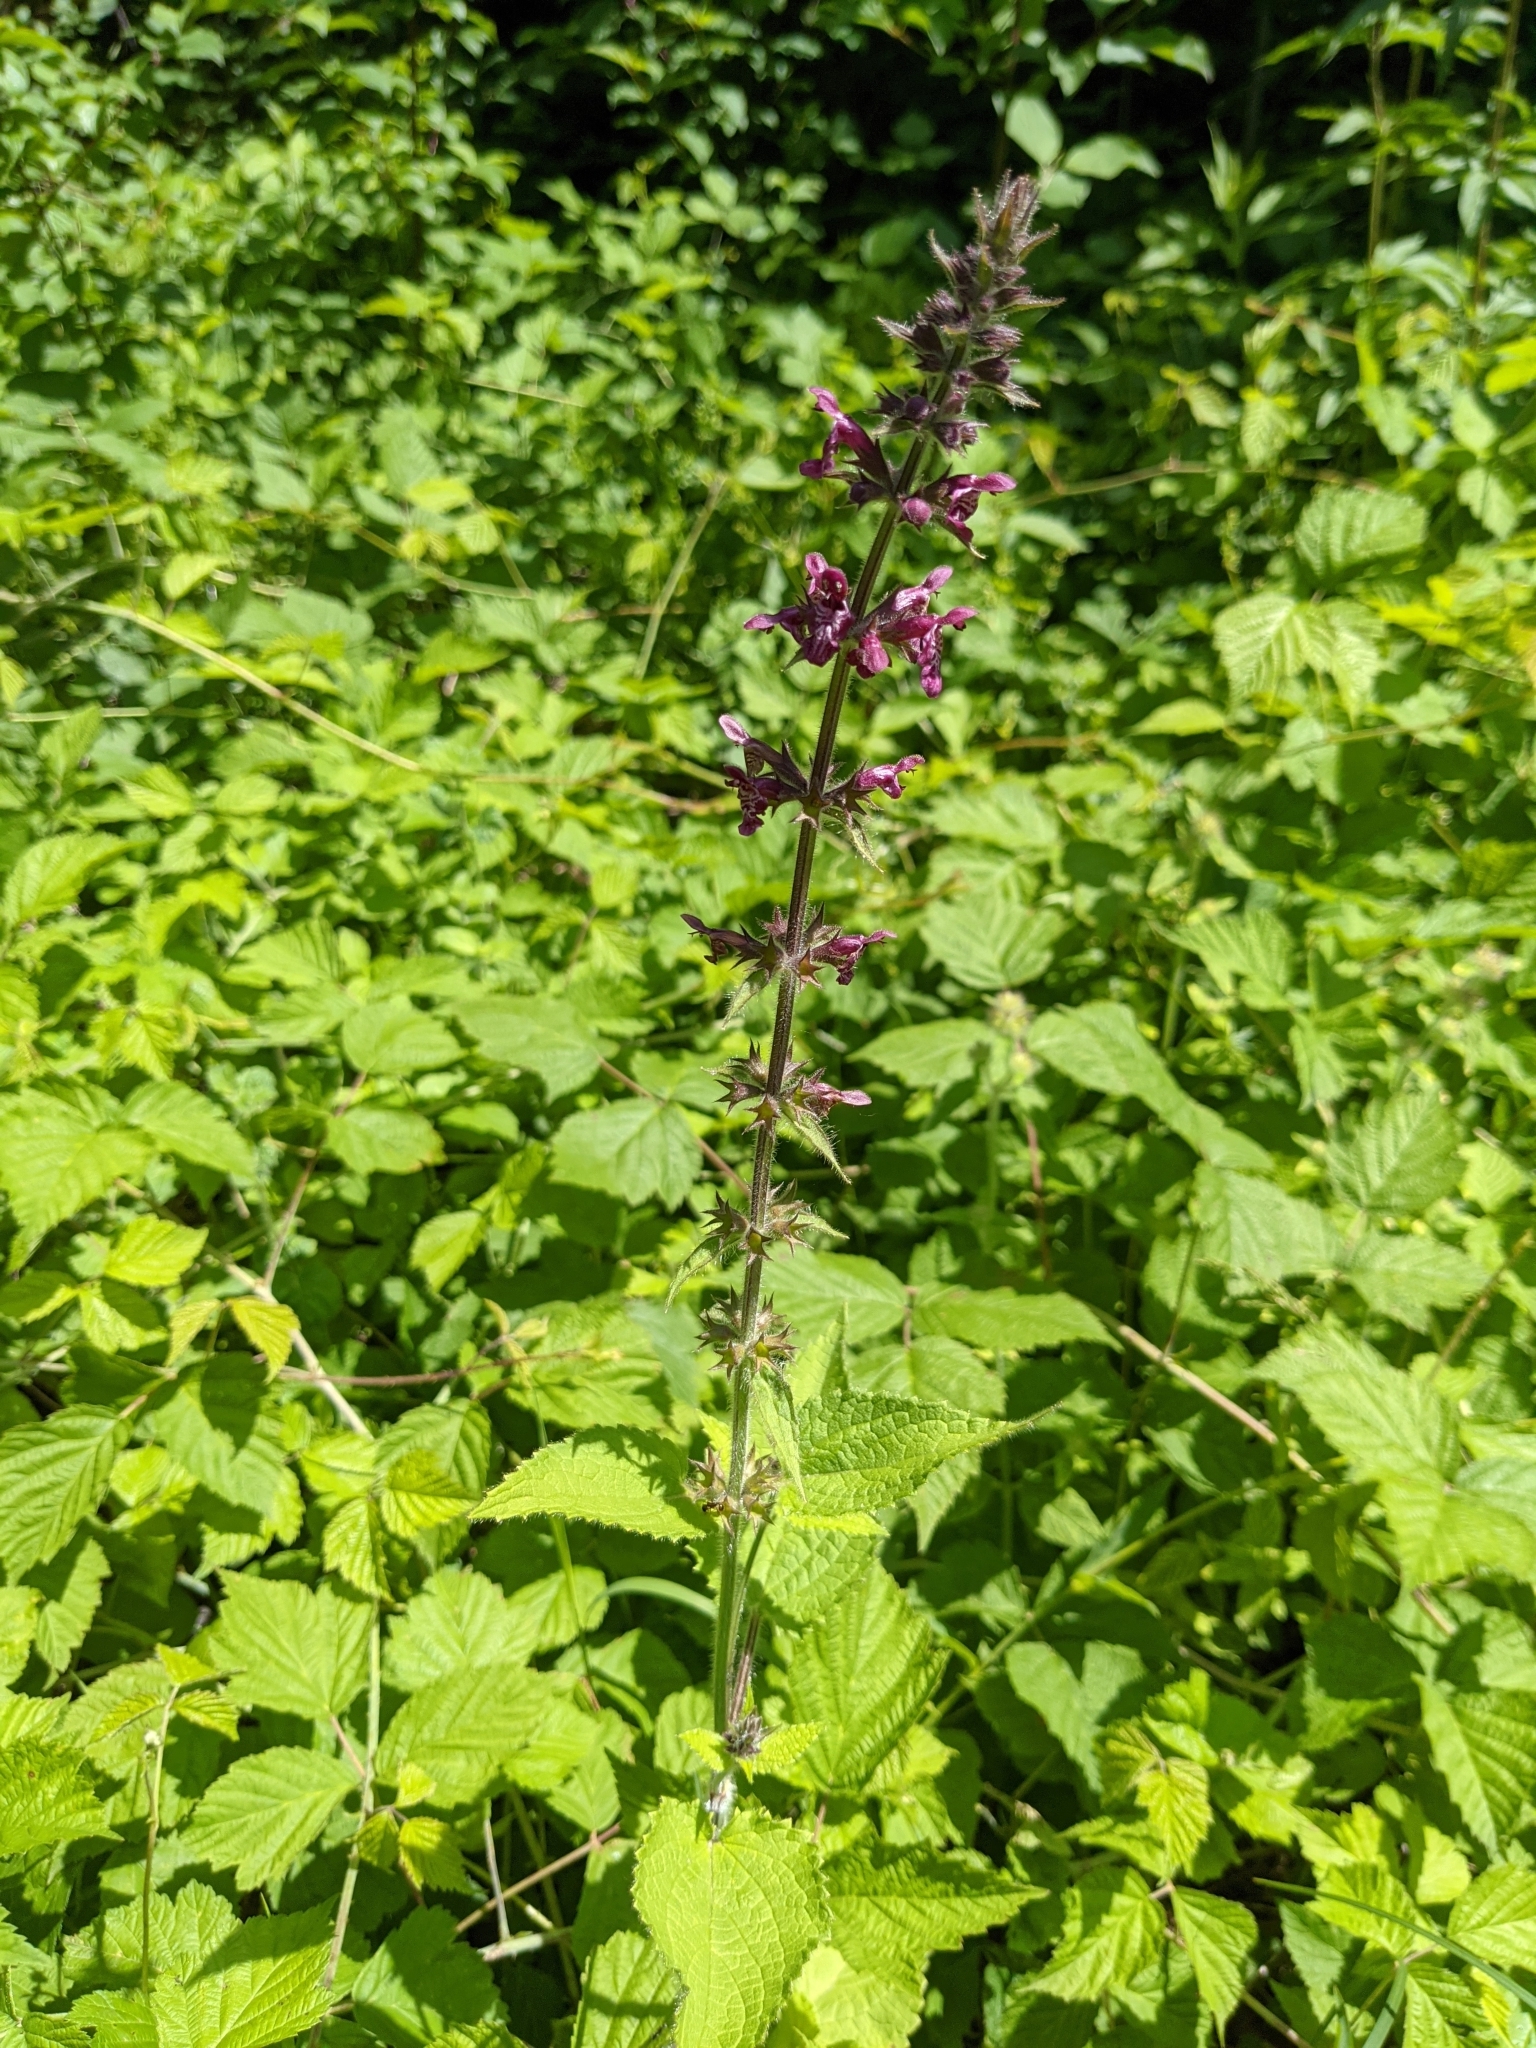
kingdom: Plantae
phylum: Tracheophyta
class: Magnoliopsida
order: Lamiales
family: Lamiaceae
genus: Stachys
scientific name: Stachys sylvatica
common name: Hedge woundwort
